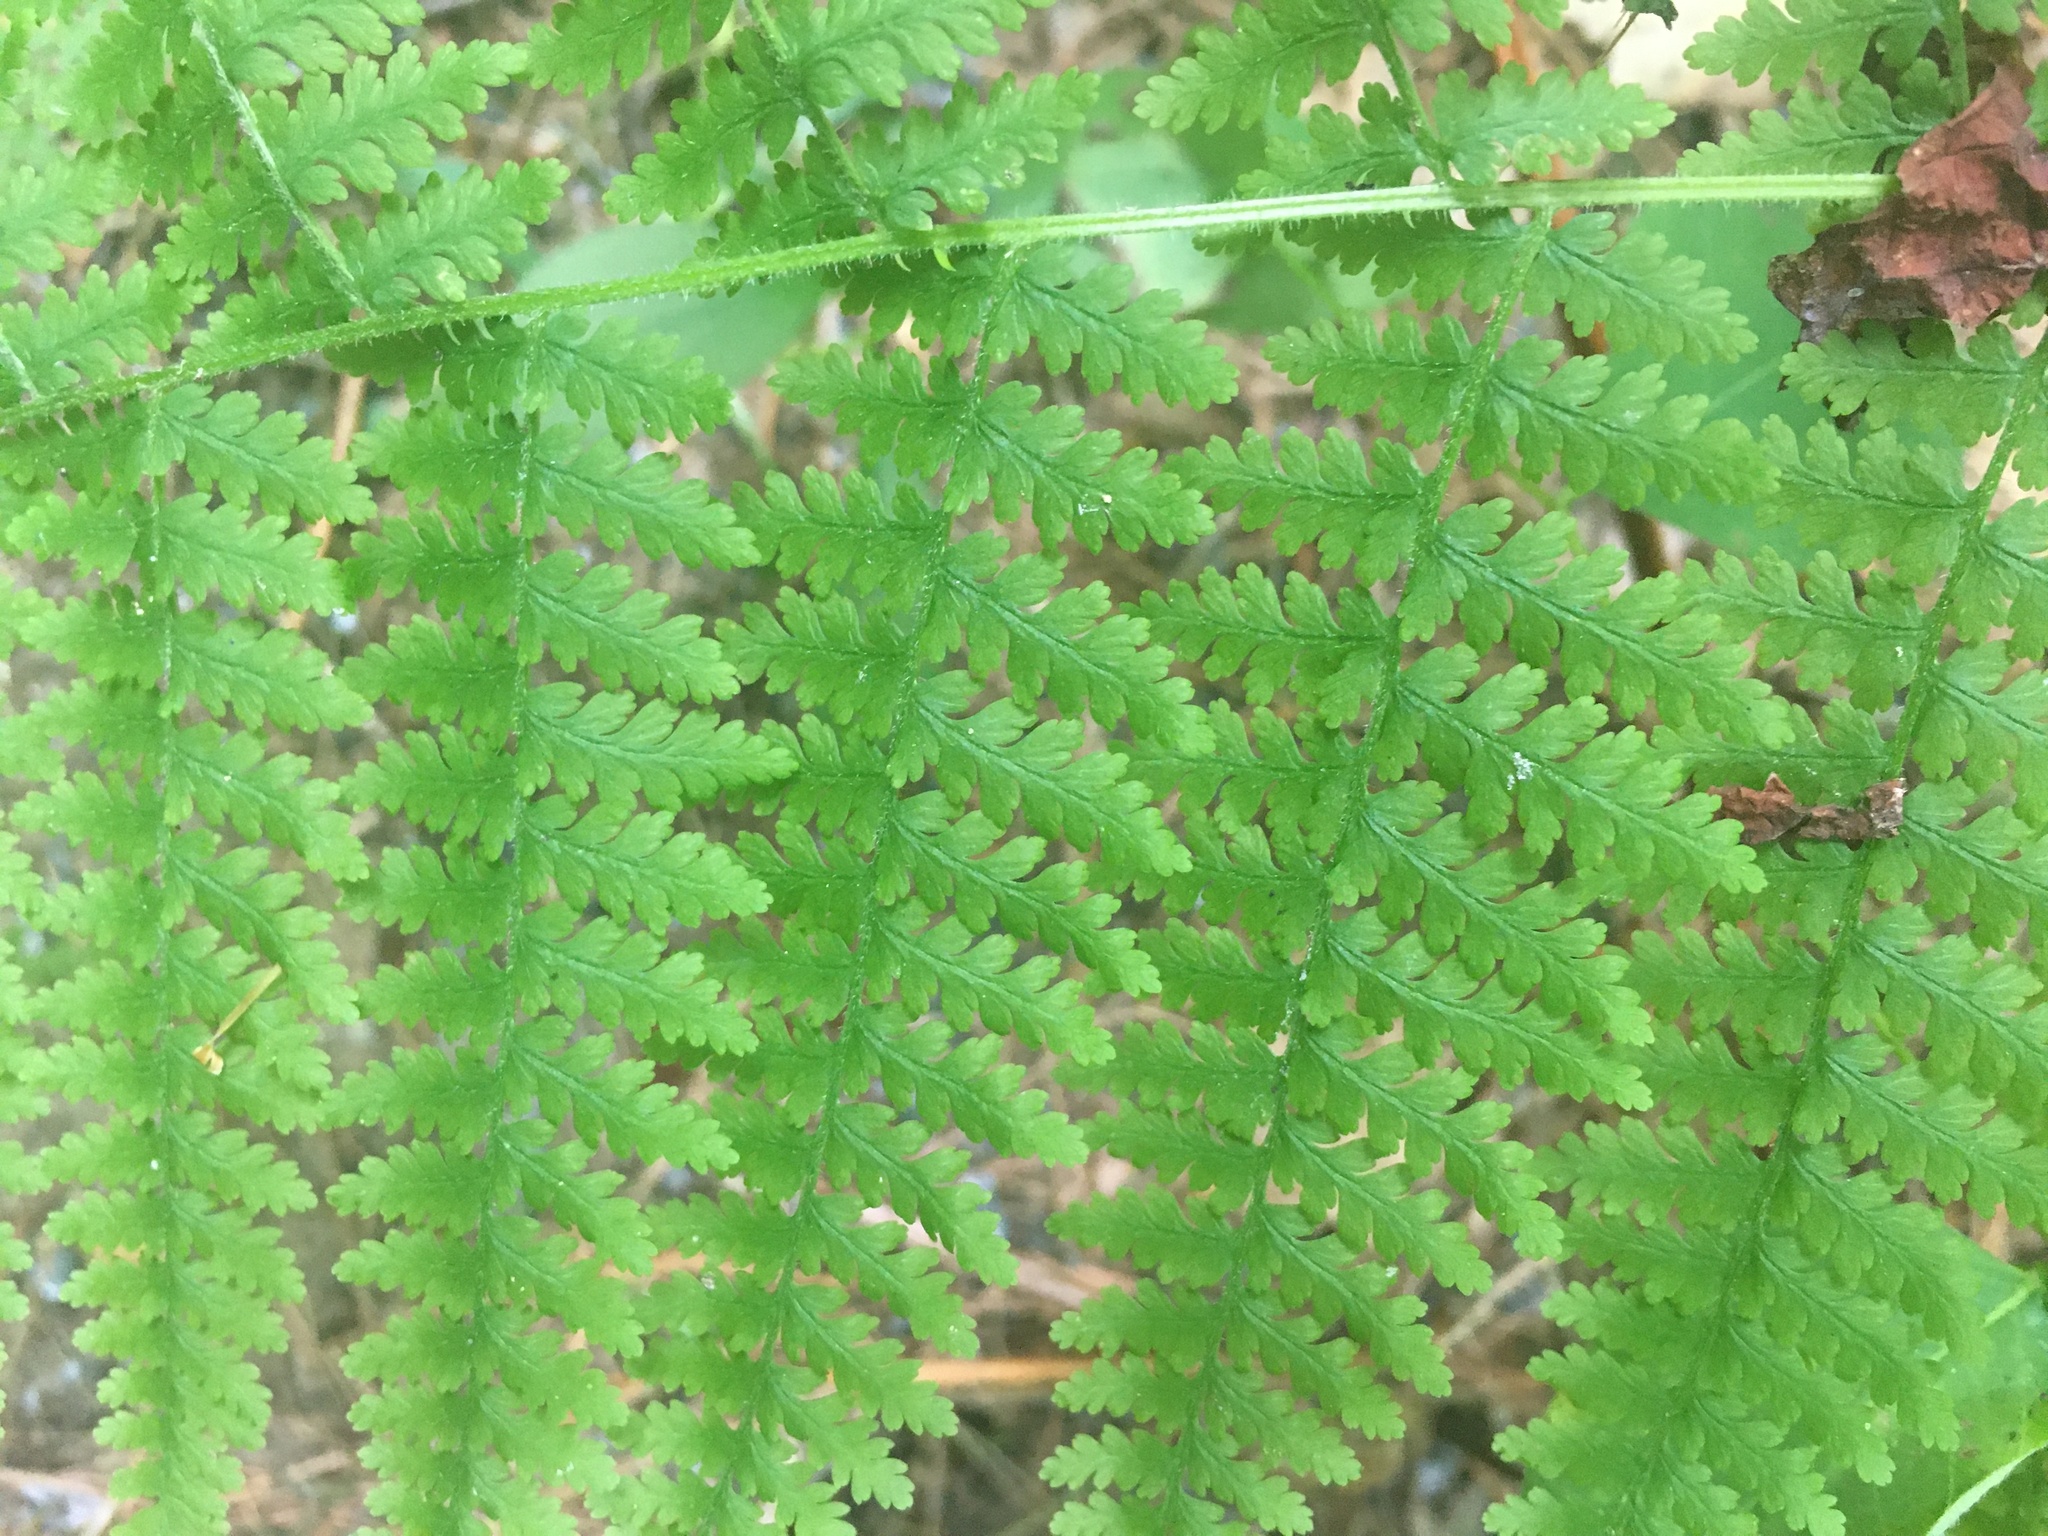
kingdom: Plantae
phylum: Tracheophyta
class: Polypodiopsida
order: Polypodiales
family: Dennstaedtiaceae
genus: Sitobolium
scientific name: Sitobolium punctilobum
